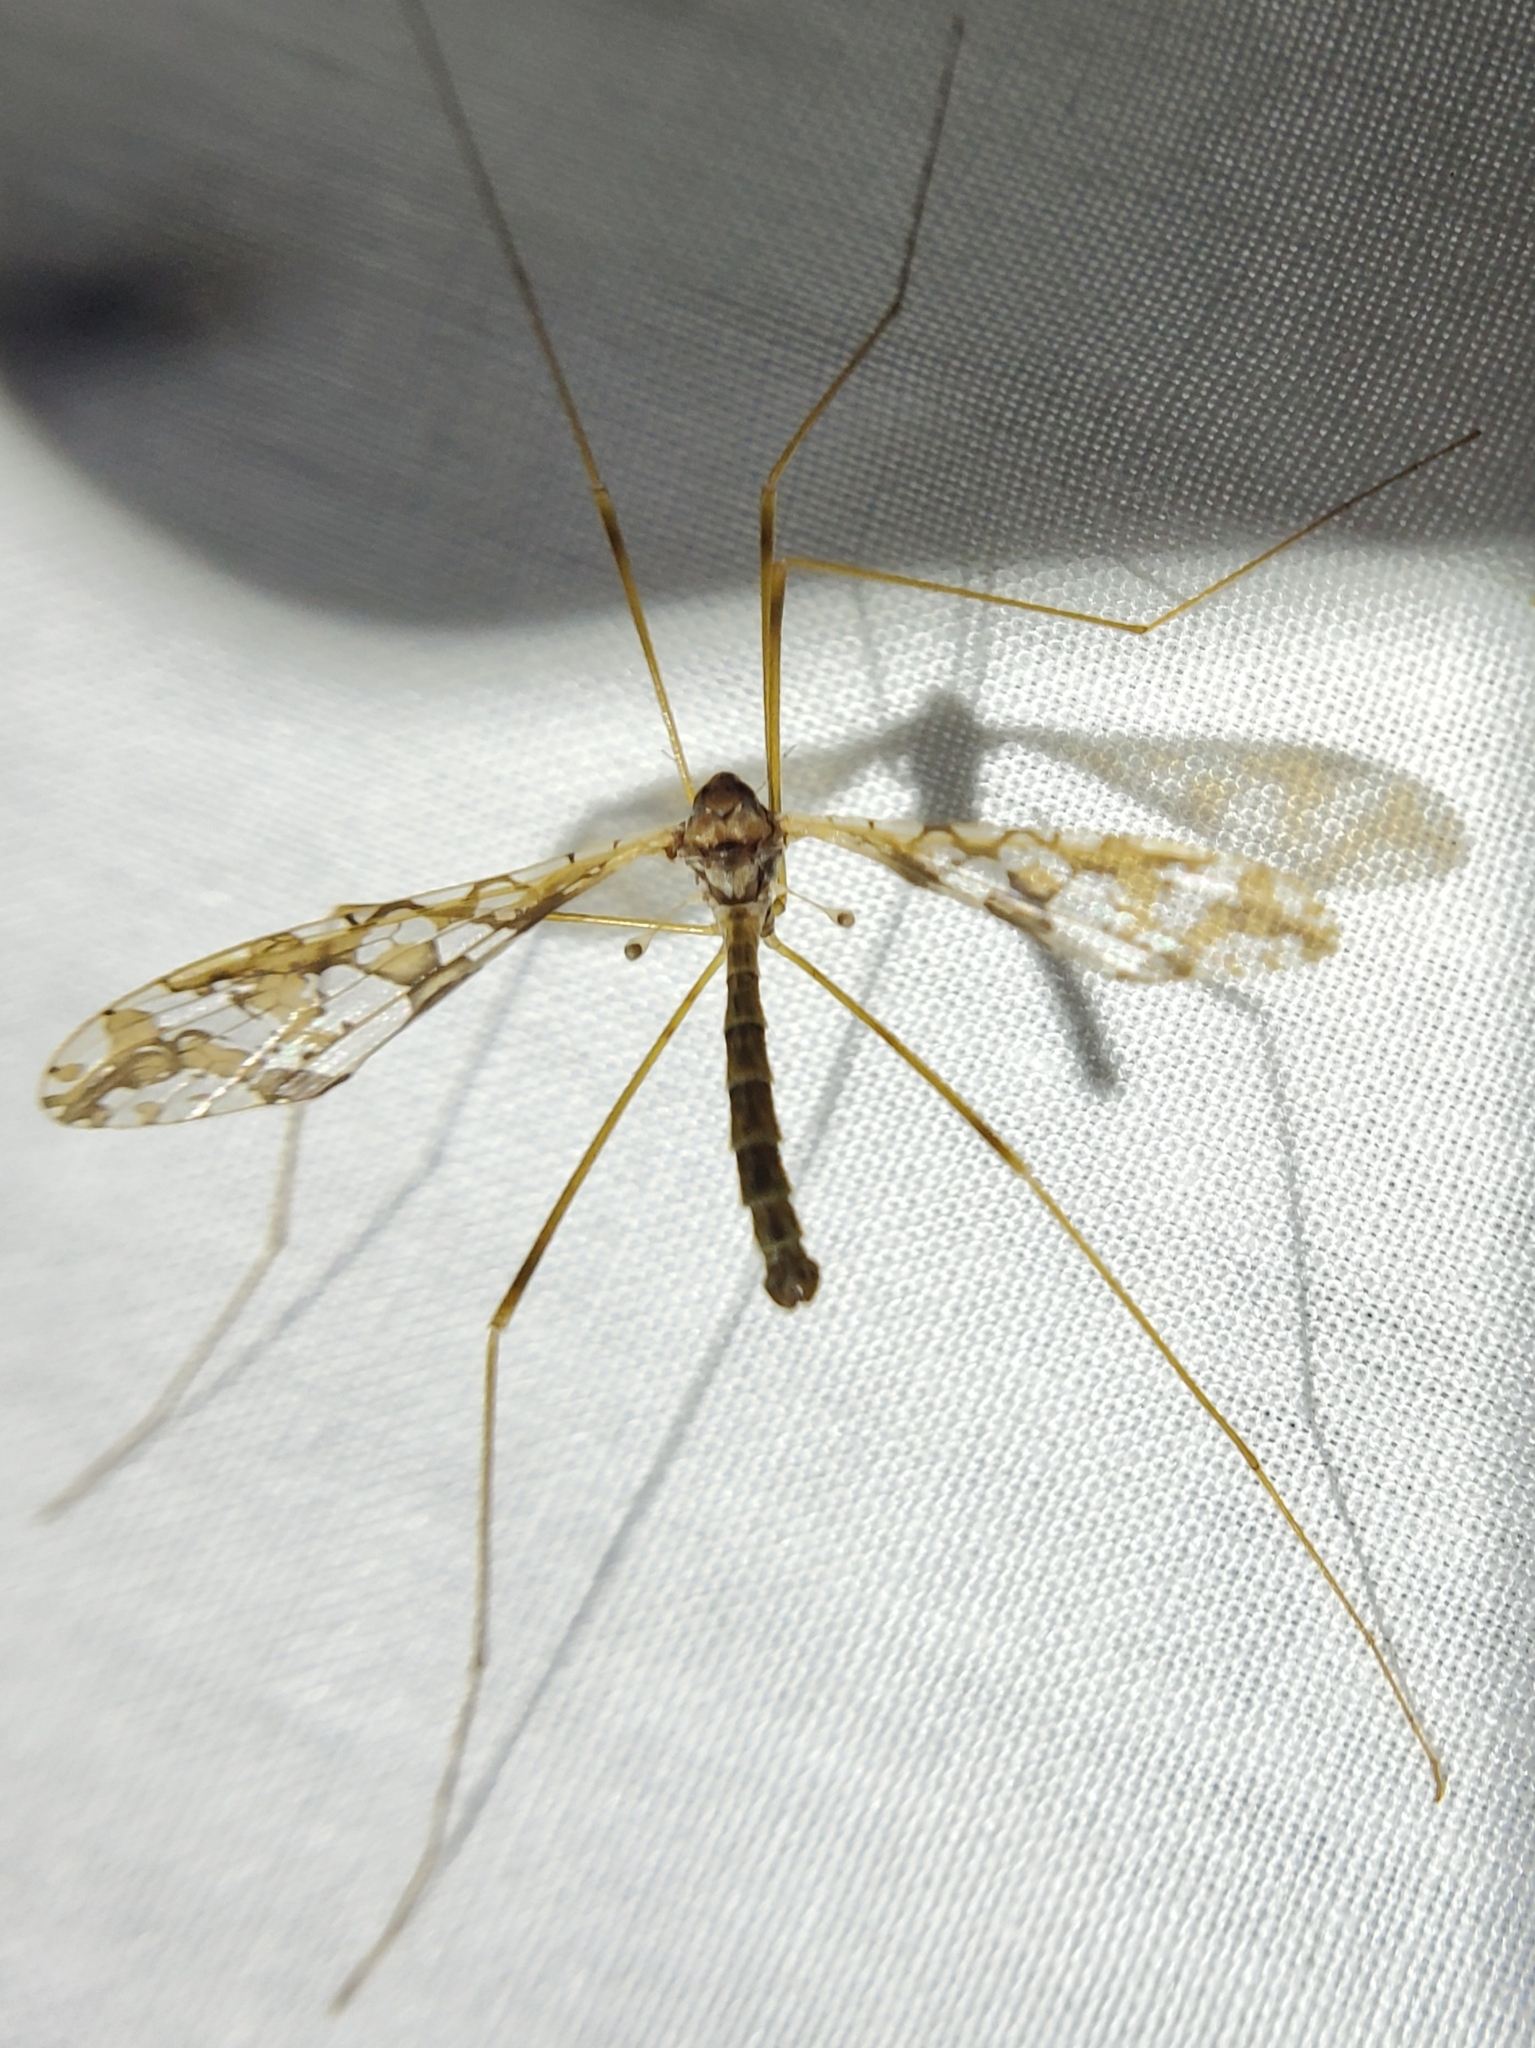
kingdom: Animalia
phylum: Arthropoda
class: Insecta
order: Diptera
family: Limoniidae
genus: Epiphragma
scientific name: Epiphragma solatrix
